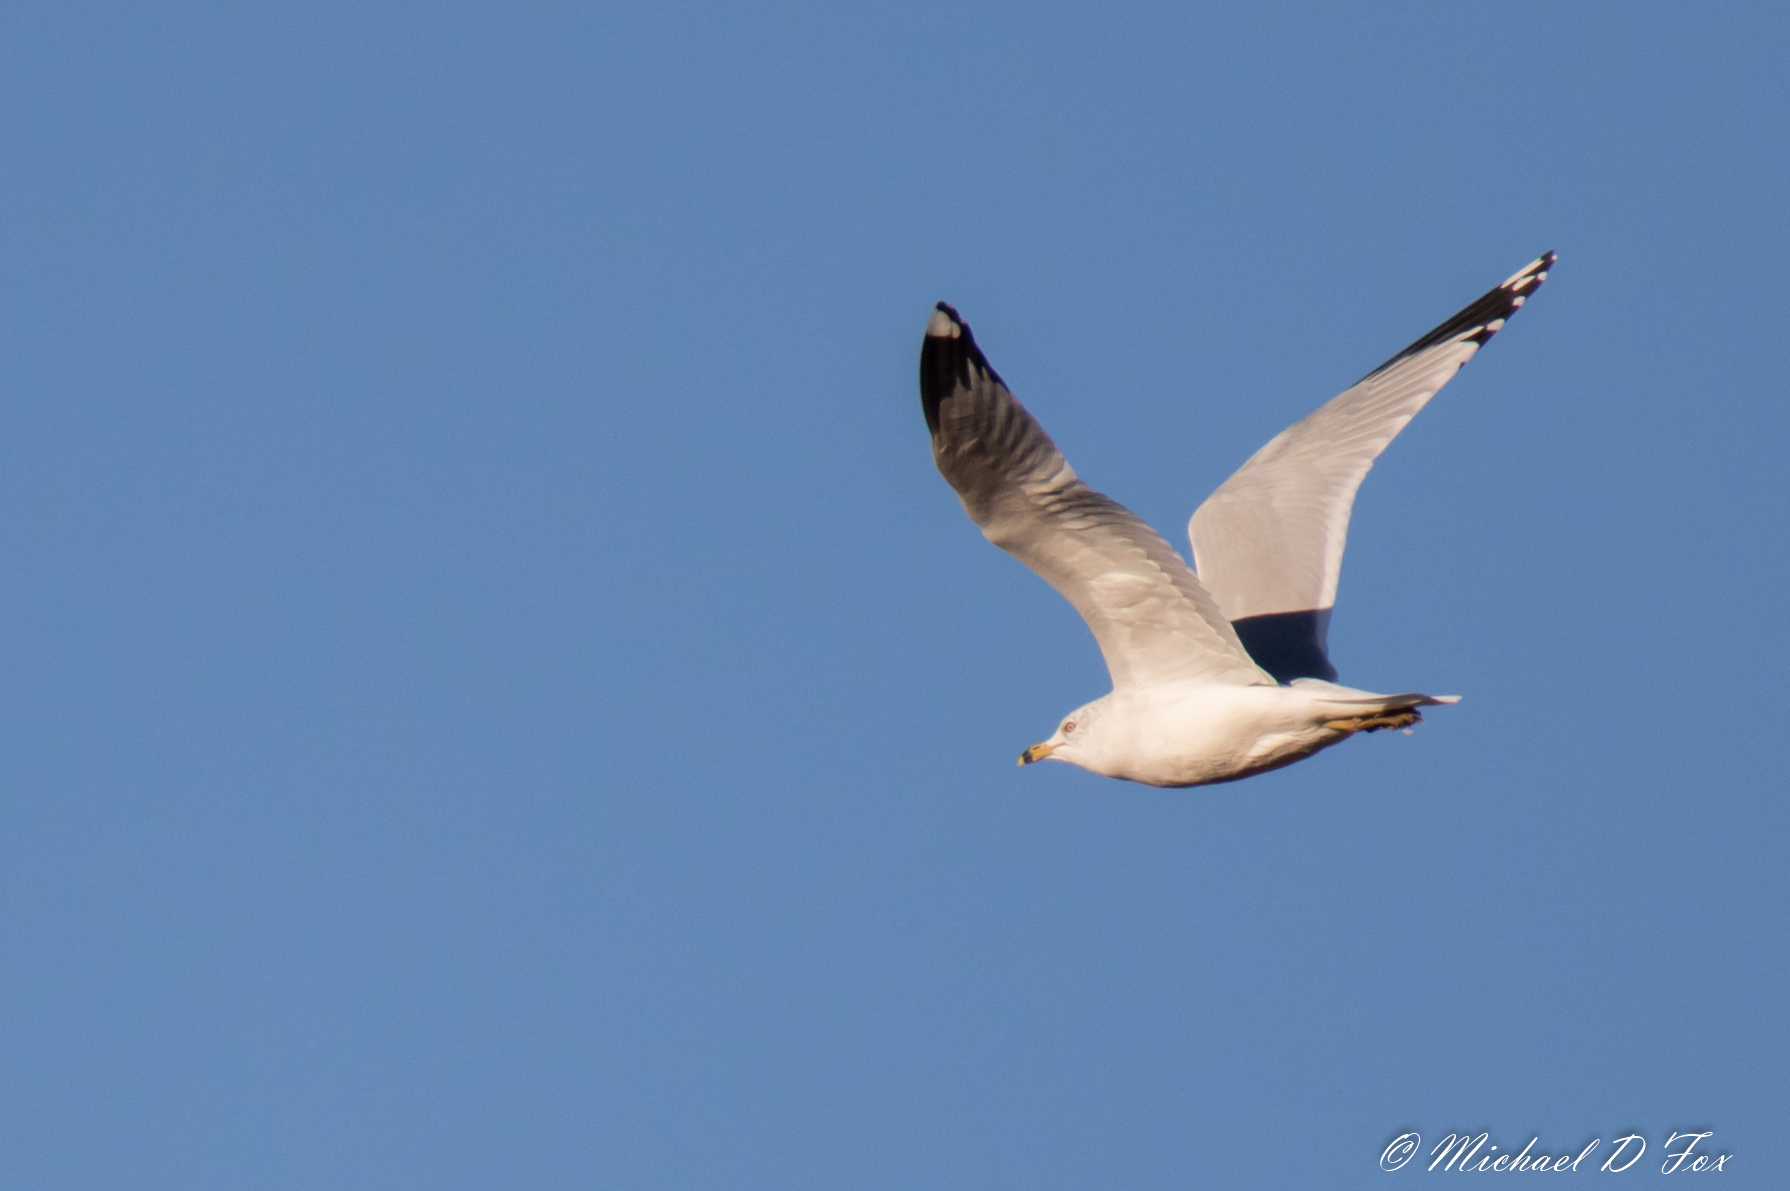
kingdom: Animalia
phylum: Chordata
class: Aves
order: Charadriiformes
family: Laridae
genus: Larus
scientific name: Larus delawarensis
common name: Ring-billed gull
